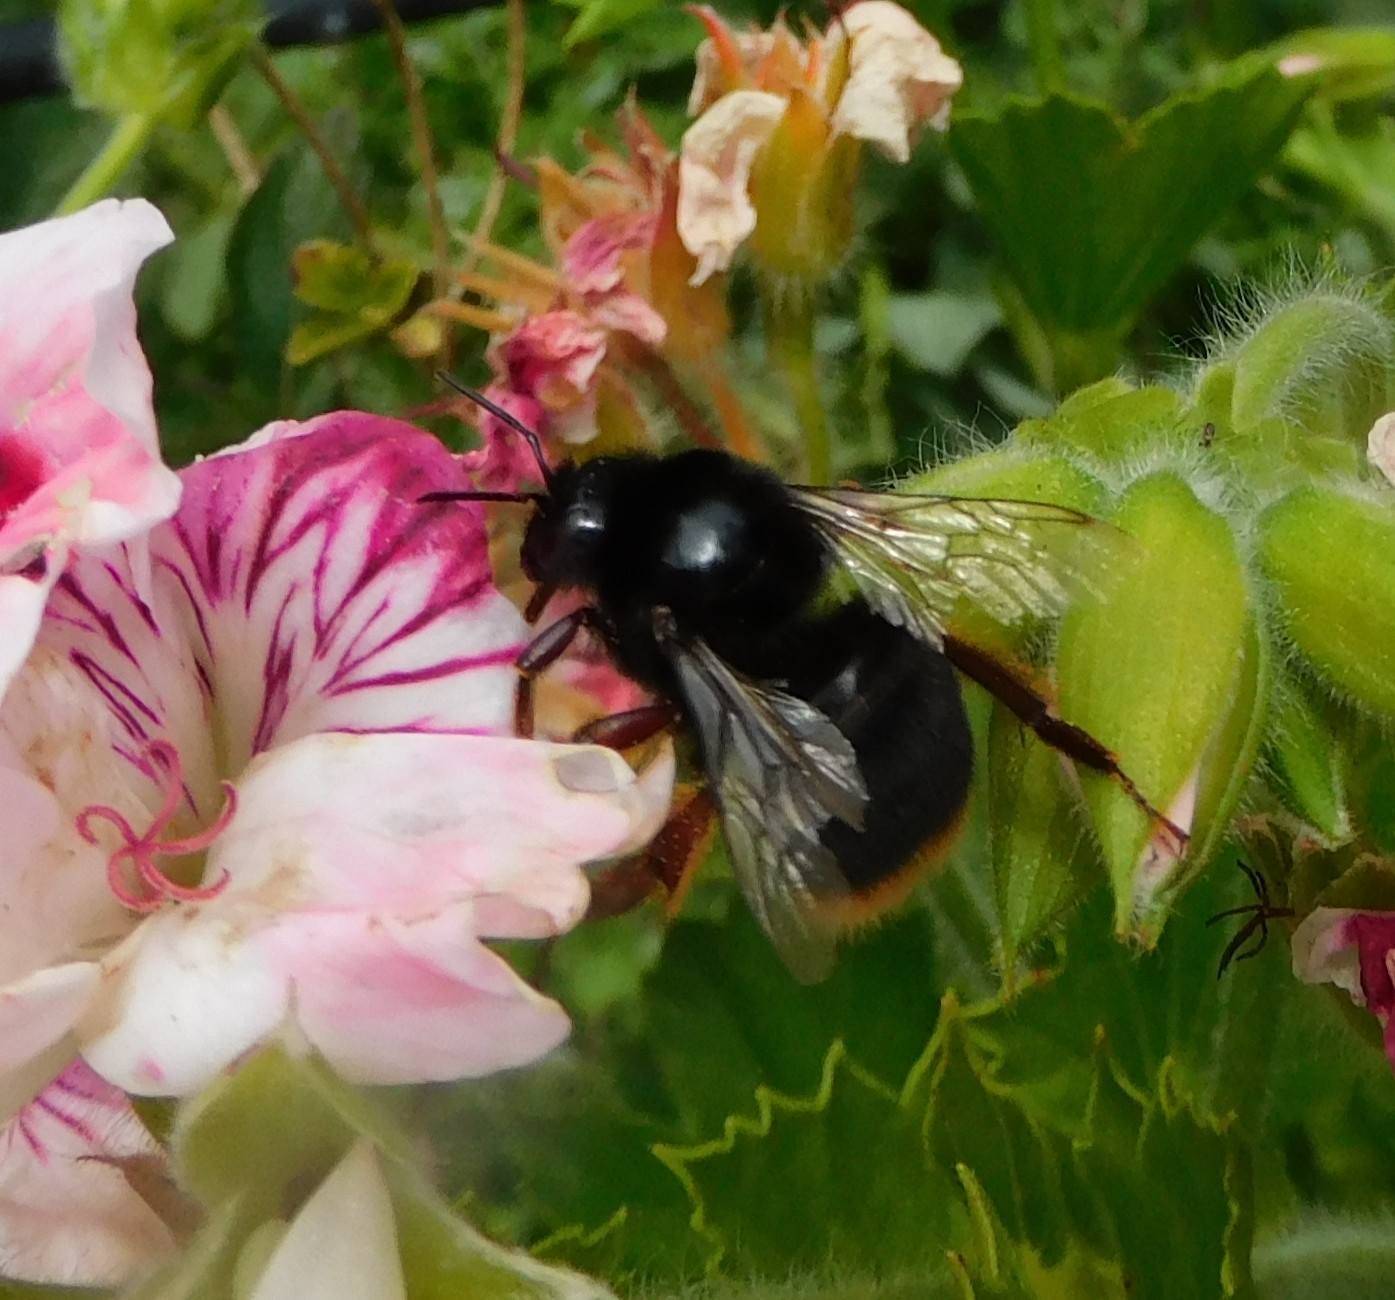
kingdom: Animalia
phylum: Arthropoda
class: Insecta
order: Hymenoptera
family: Apidae
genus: Bombus
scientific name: Bombus terrestris
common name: Buff-tailed bumblebee
